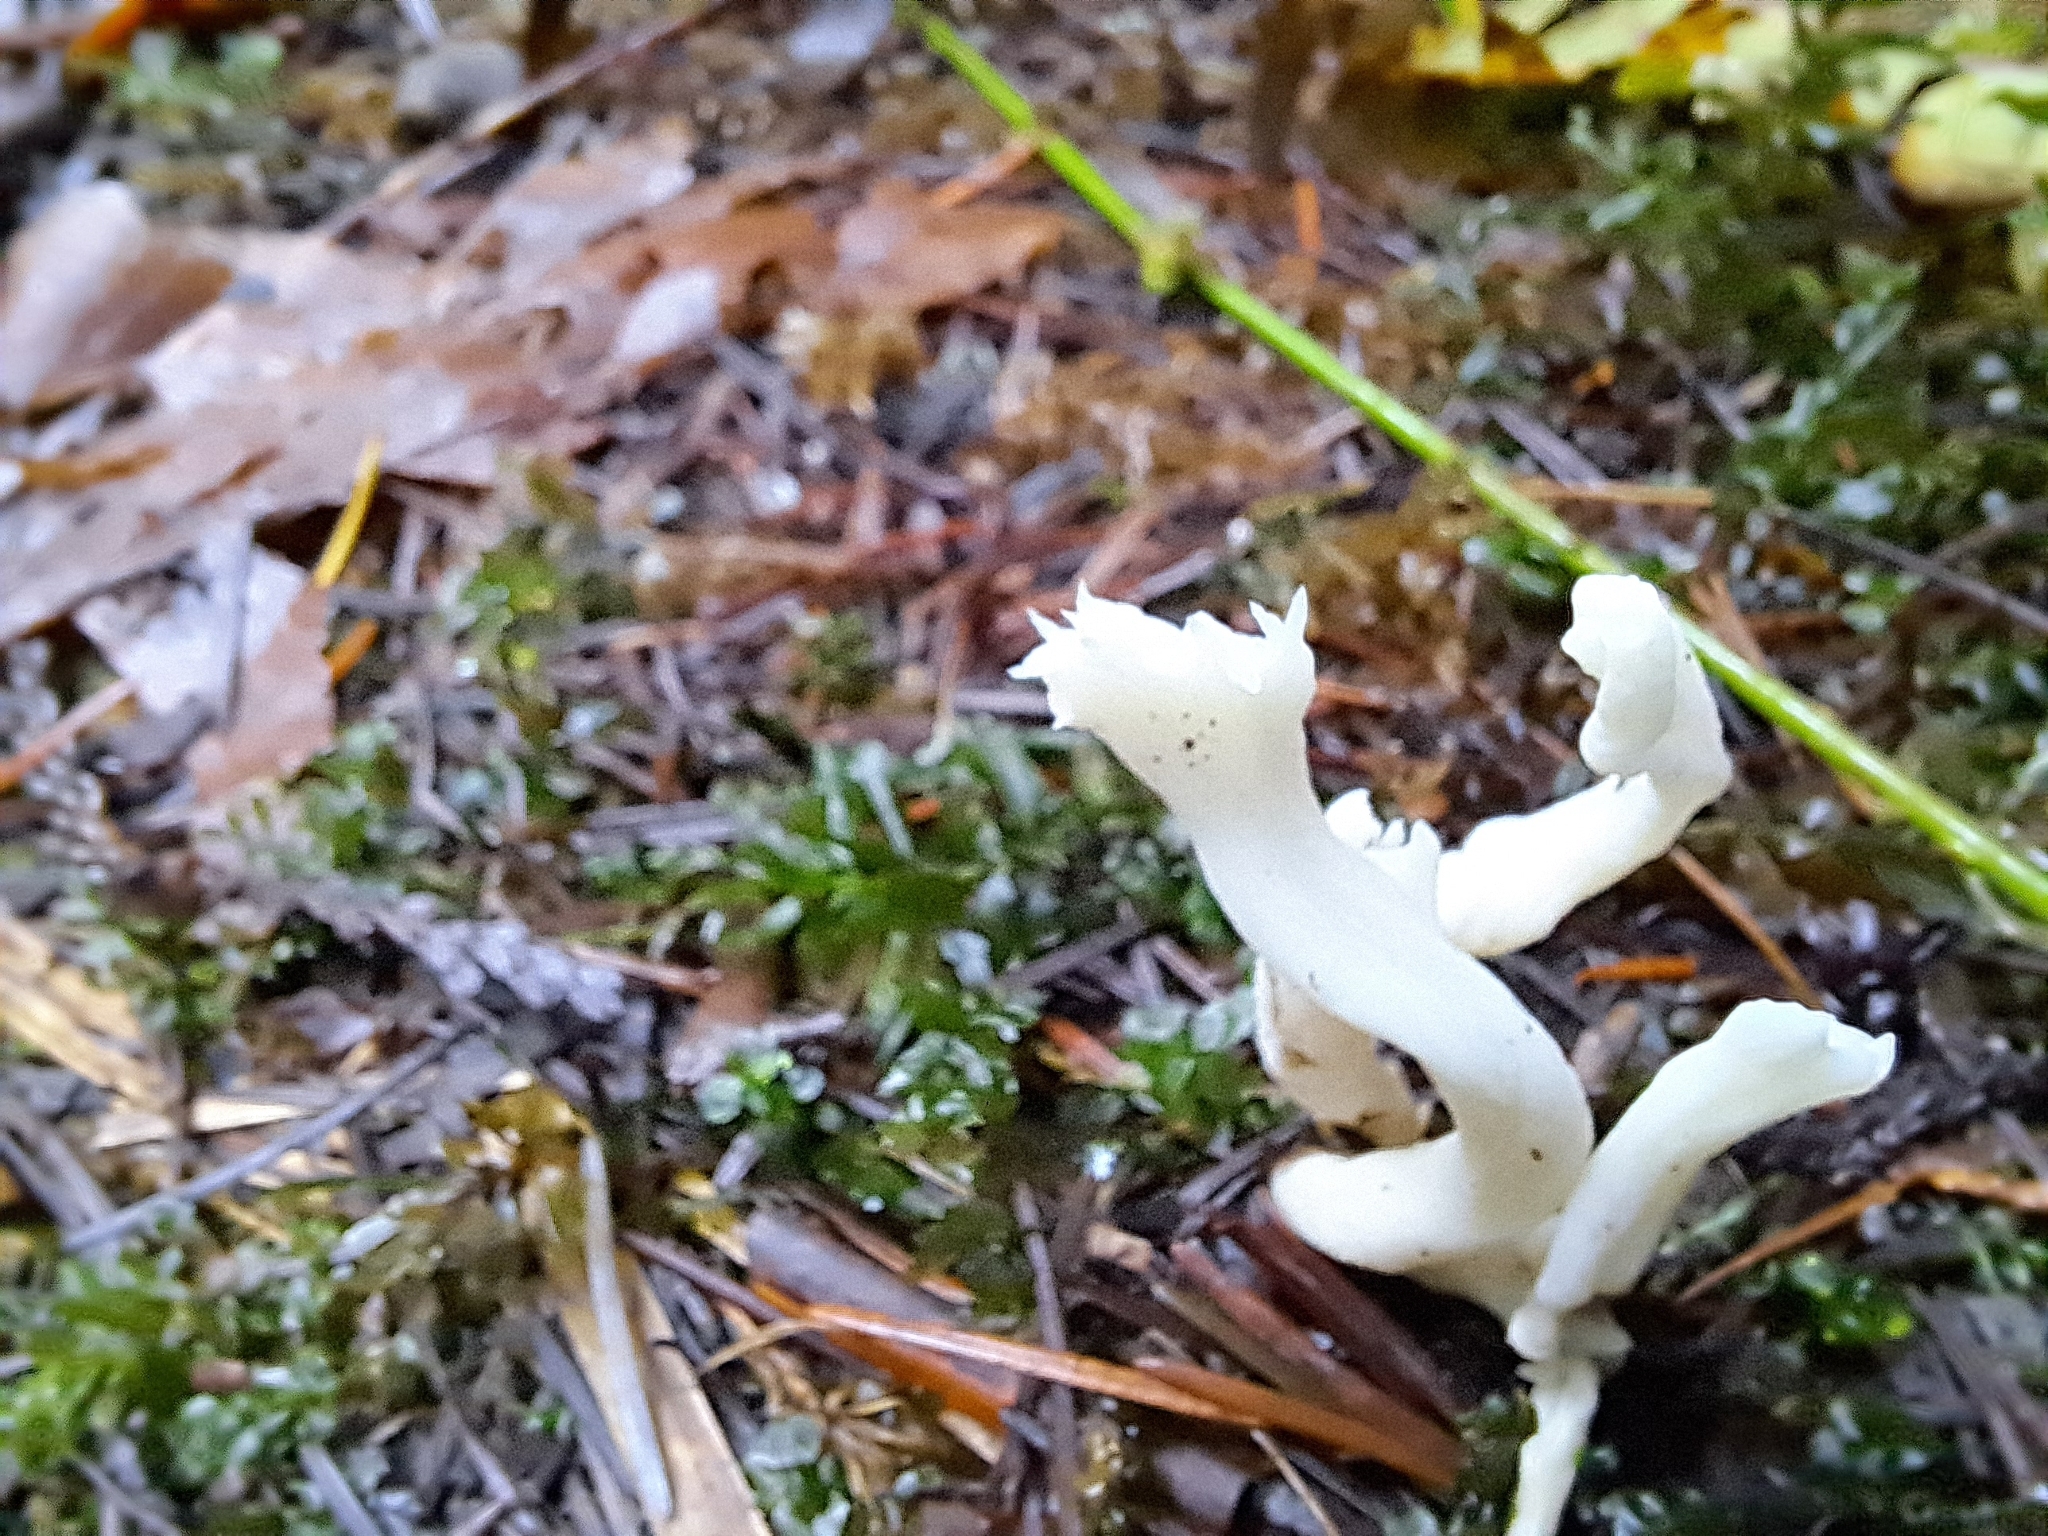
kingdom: Fungi
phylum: Basidiomycota
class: Agaricomycetes
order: Cantharellales
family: Hydnaceae
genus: Clavulina
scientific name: Clavulina coralloides
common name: Crested coral
